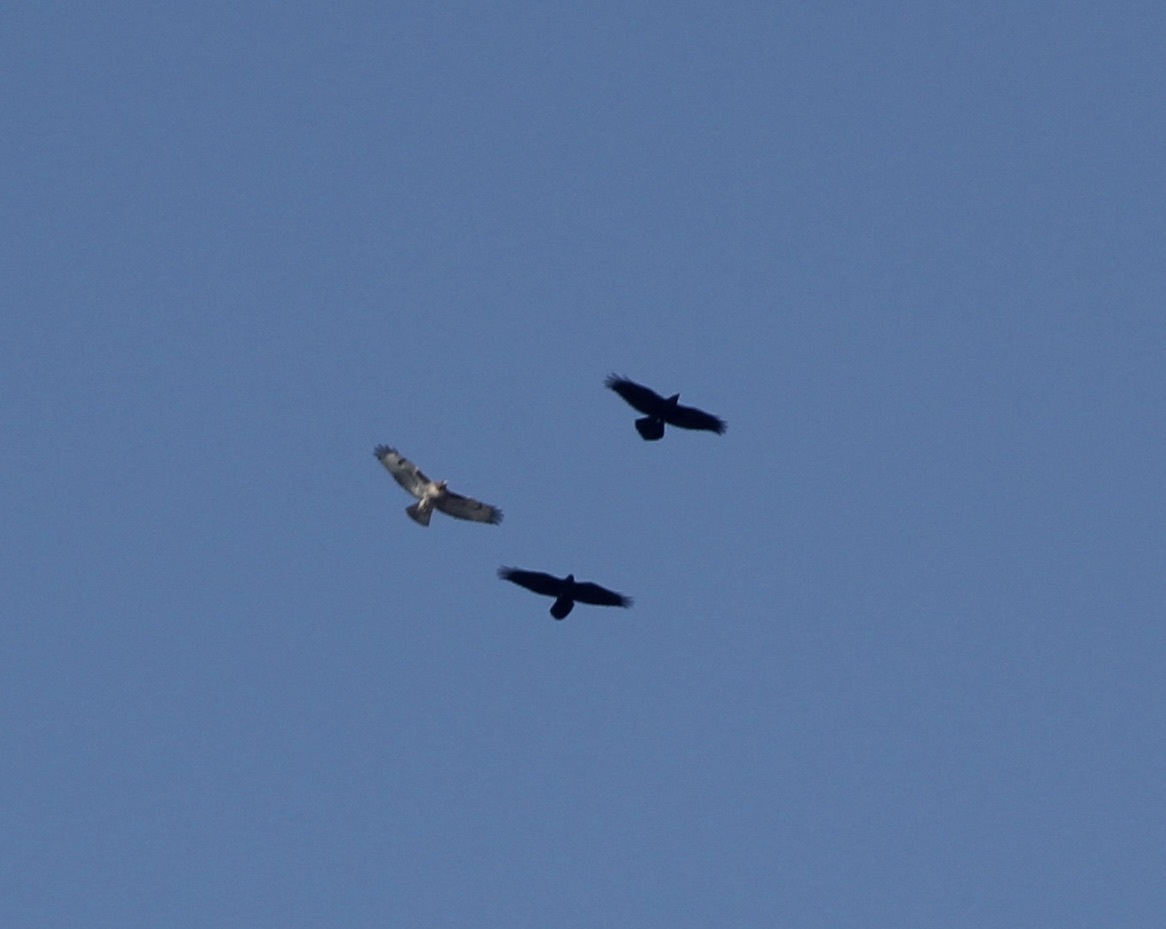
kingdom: Animalia
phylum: Chordata
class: Aves
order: Passeriformes
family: Corvidae
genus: Corvus
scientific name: Corvus corax
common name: Common raven
